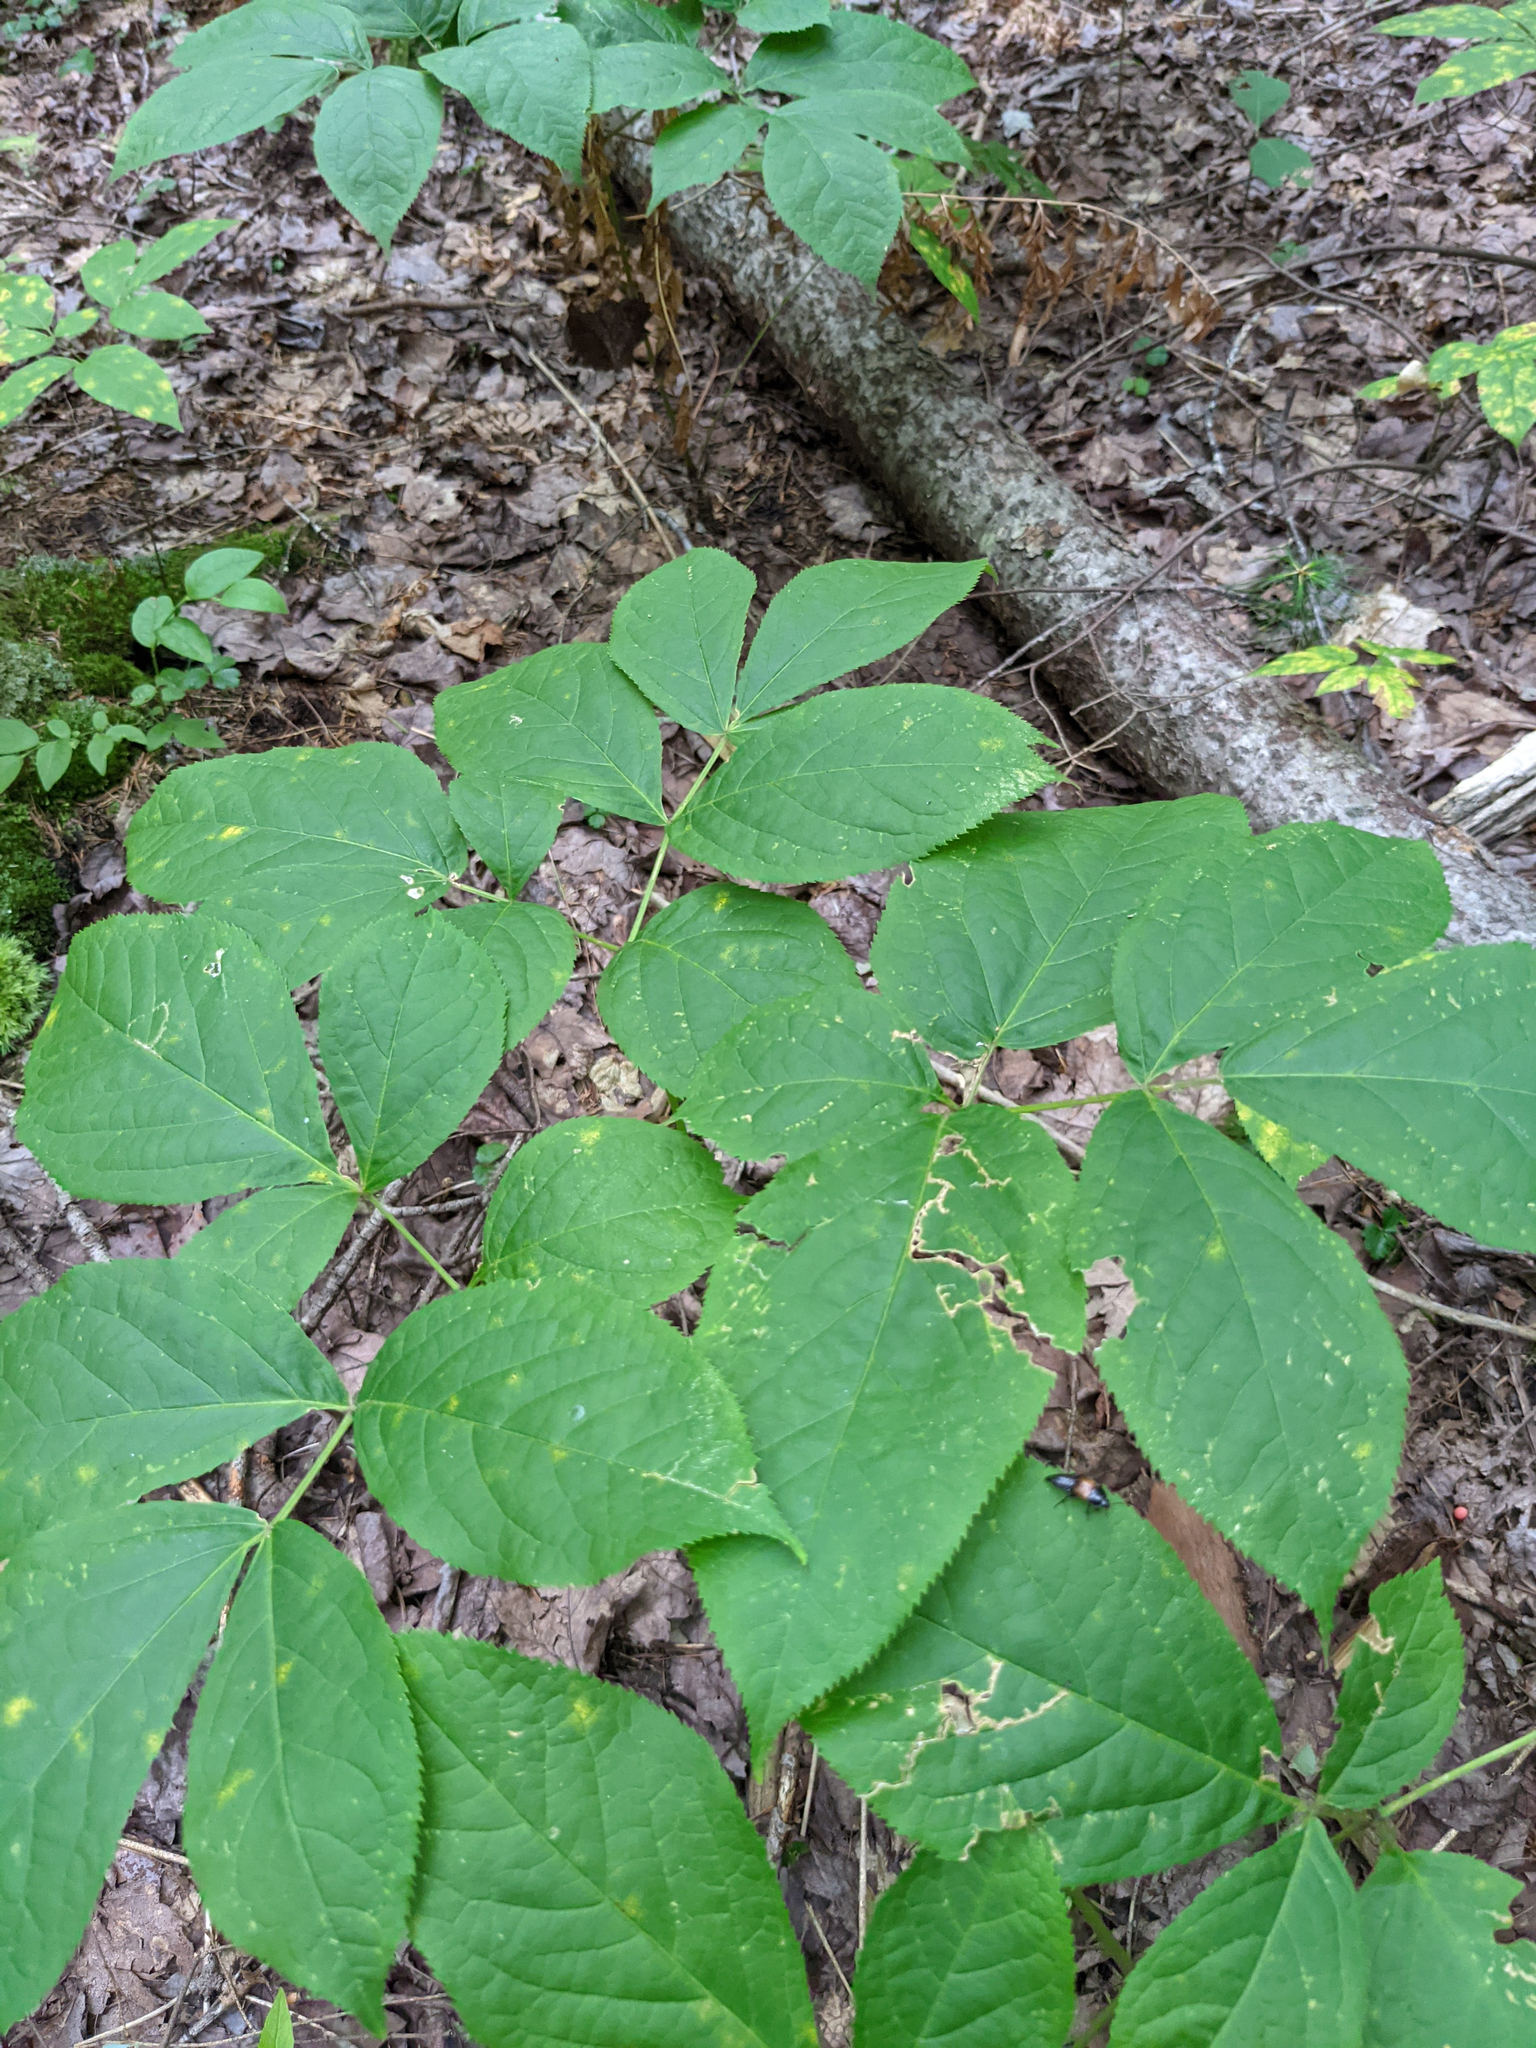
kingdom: Plantae
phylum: Tracheophyta
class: Magnoliopsida
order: Apiales
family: Araliaceae
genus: Aralia
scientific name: Aralia nudicaulis
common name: Wild sarsaparilla
